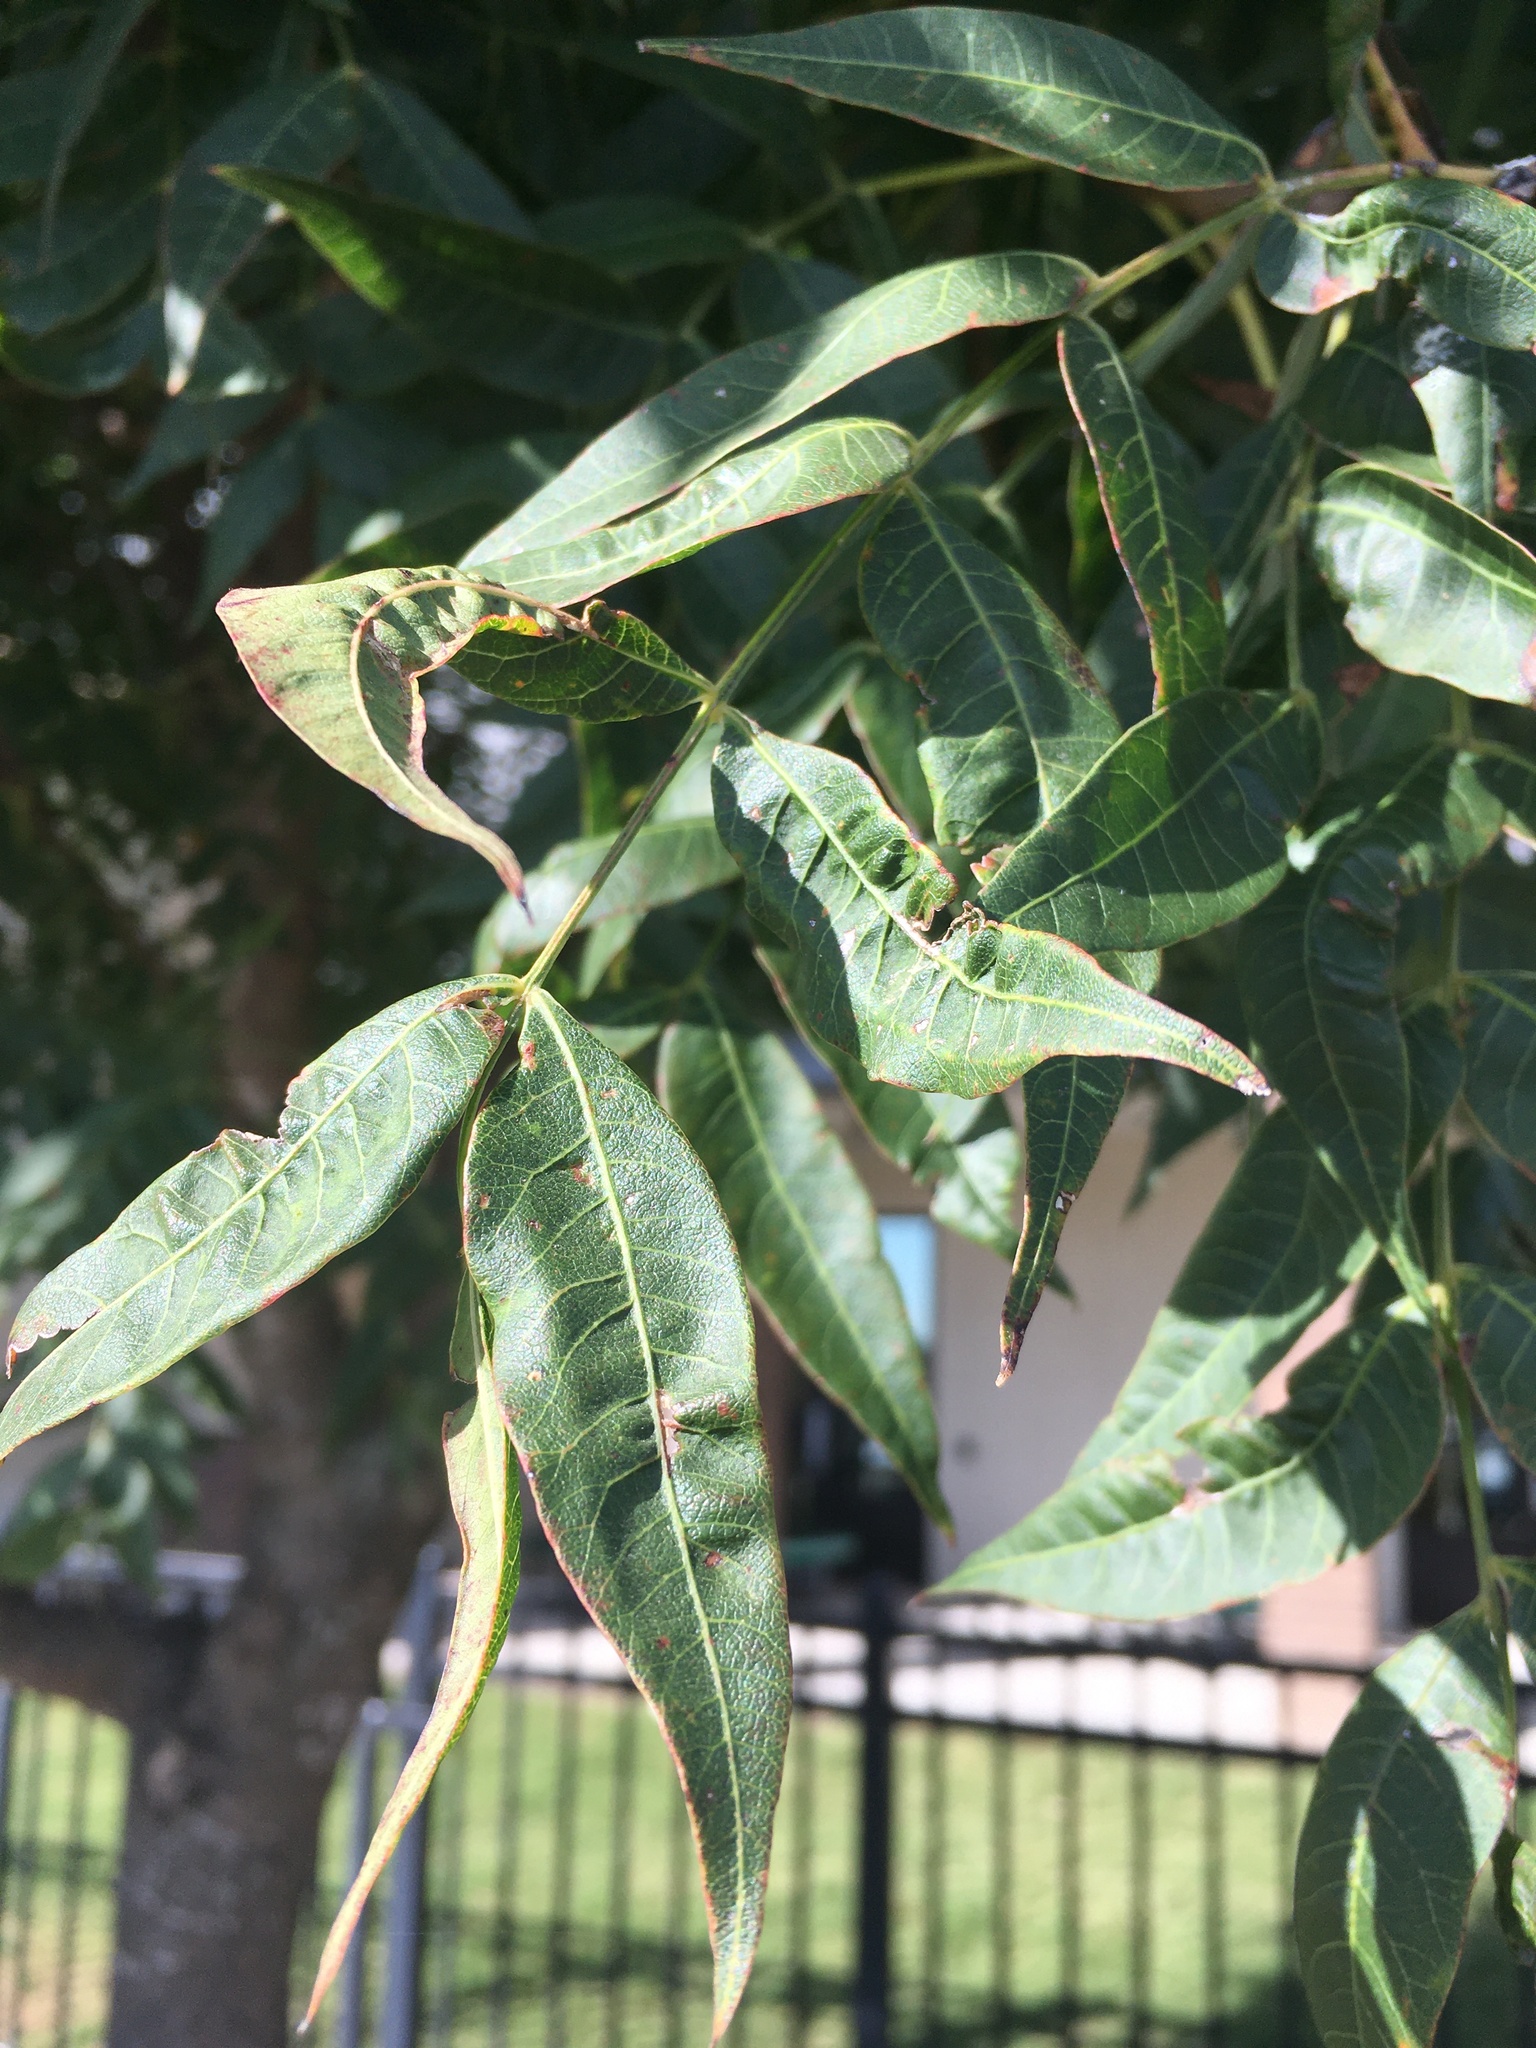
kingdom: Plantae
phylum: Tracheophyta
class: Magnoliopsida
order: Sapindales
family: Anacardiaceae
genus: Pistacia
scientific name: Pistacia chinensis
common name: Chinese pistache
